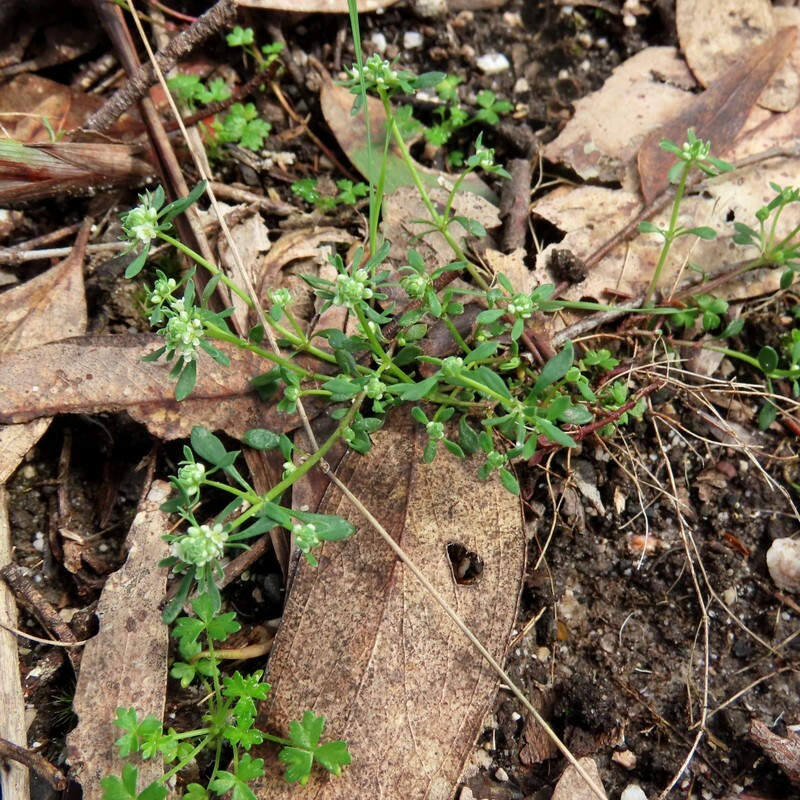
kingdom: Plantae
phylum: Tracheophyta
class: Magnoliopsida
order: Malpighiales
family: Phyllanthaceae
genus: Poranthera
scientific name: Poranthera microphylla
